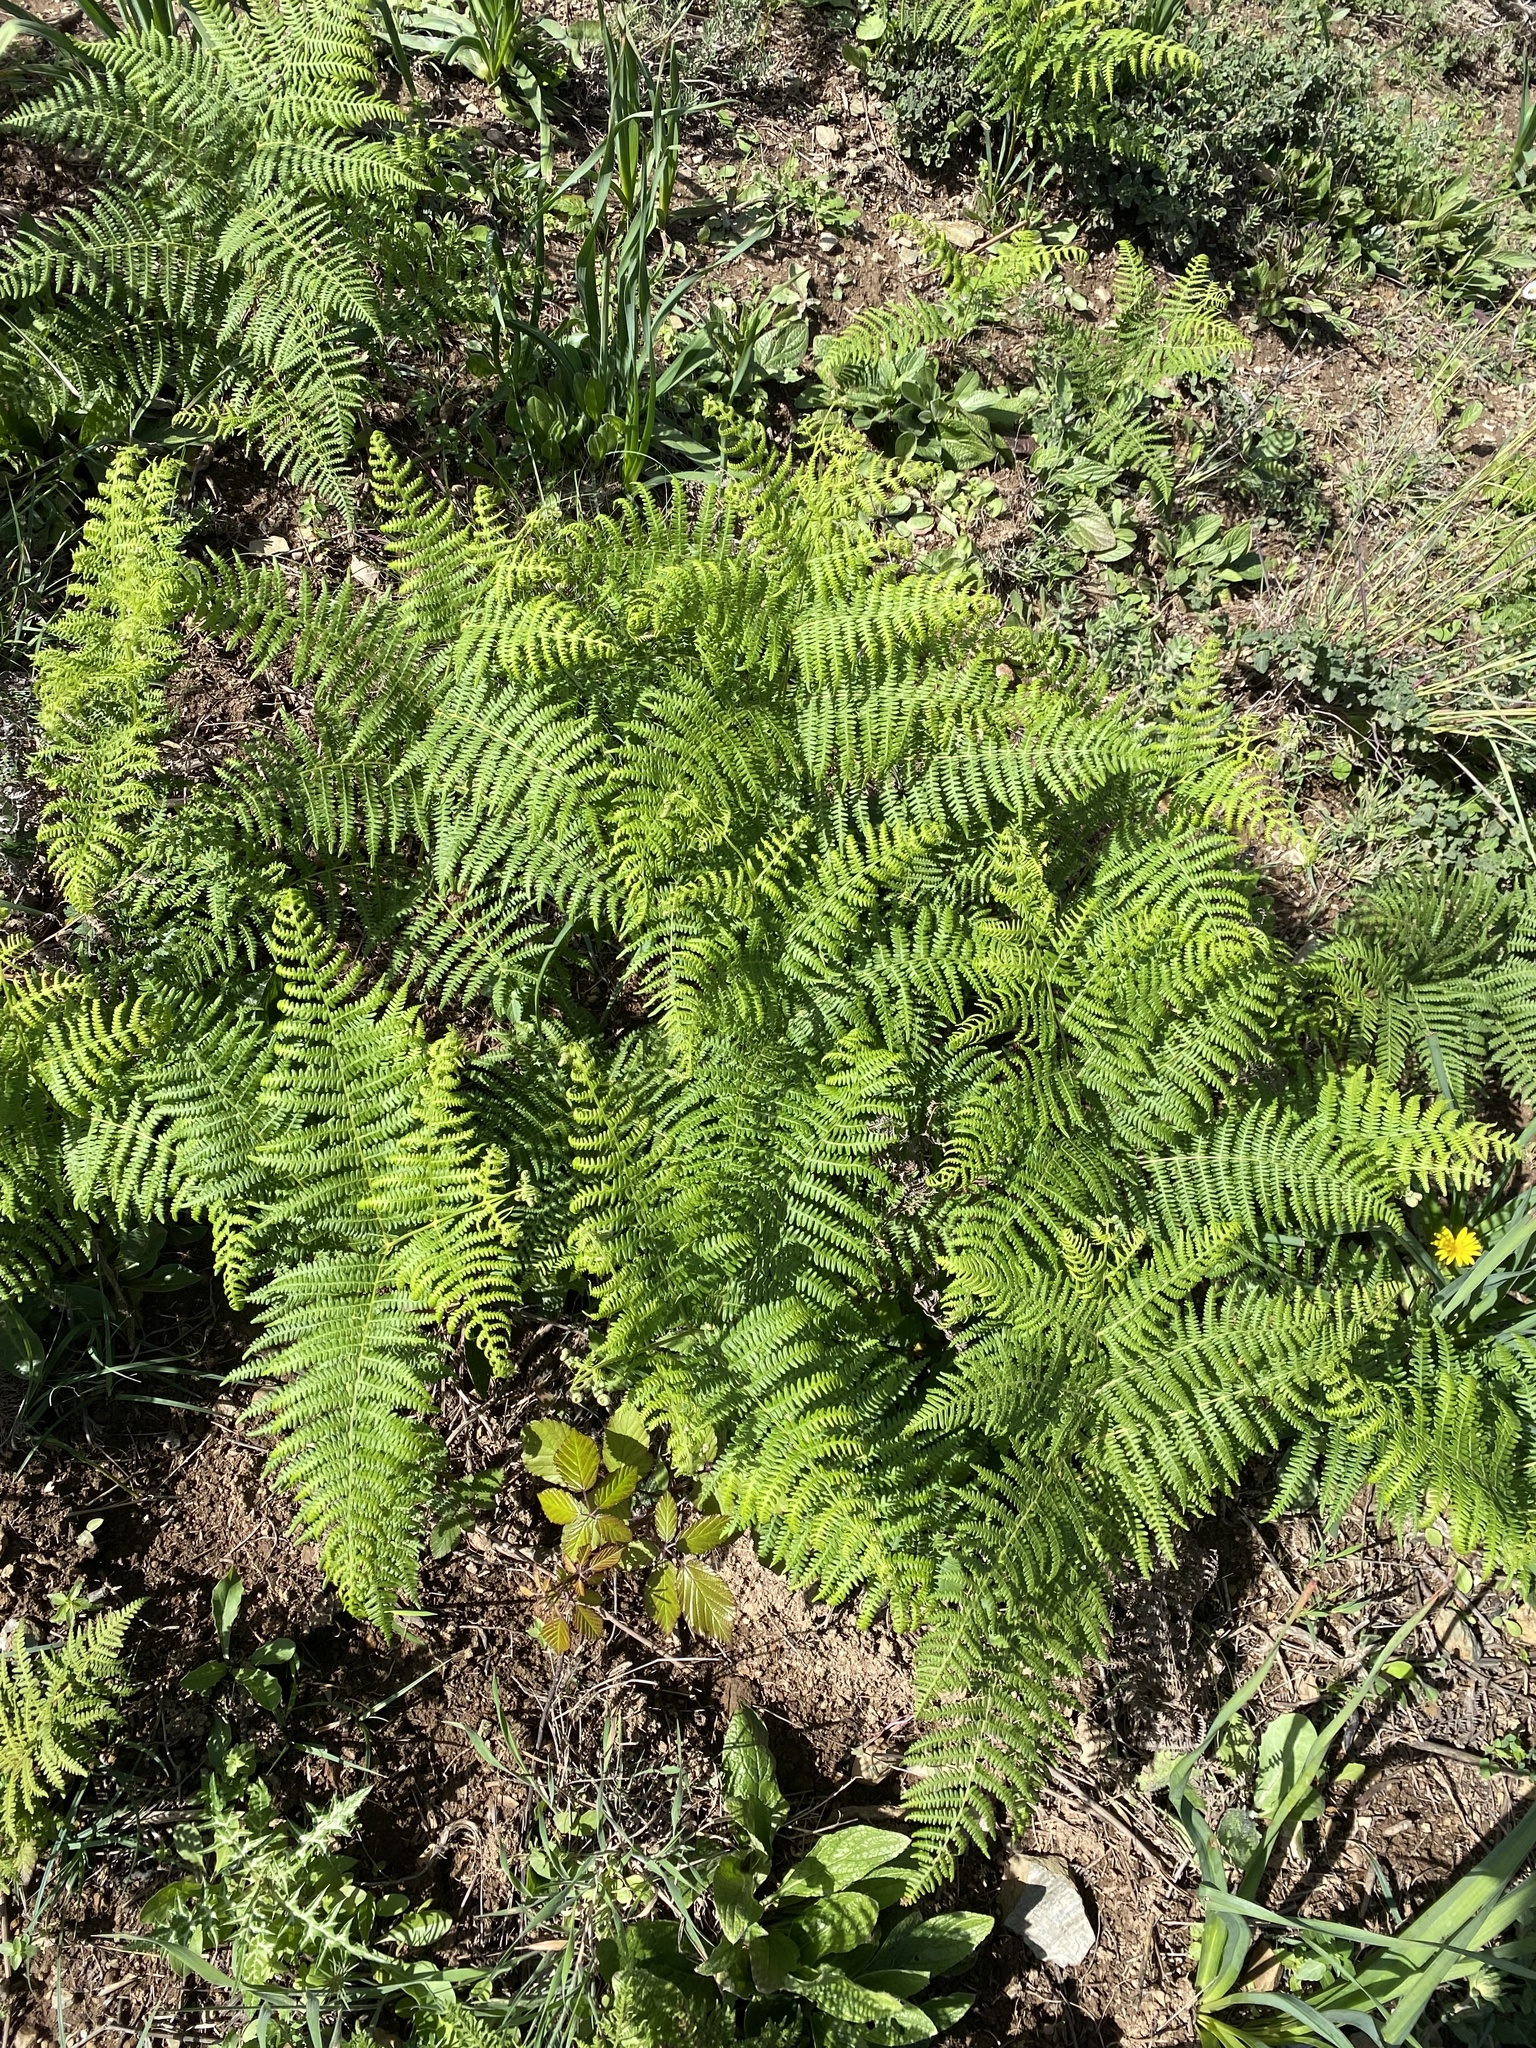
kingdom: Plantae
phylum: Tracheophyta
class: Polypodiopsida
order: Polypodiales
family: Dennstaedtiaceae
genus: Pteridium
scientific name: Pteridium aquilinum
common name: Bracken
